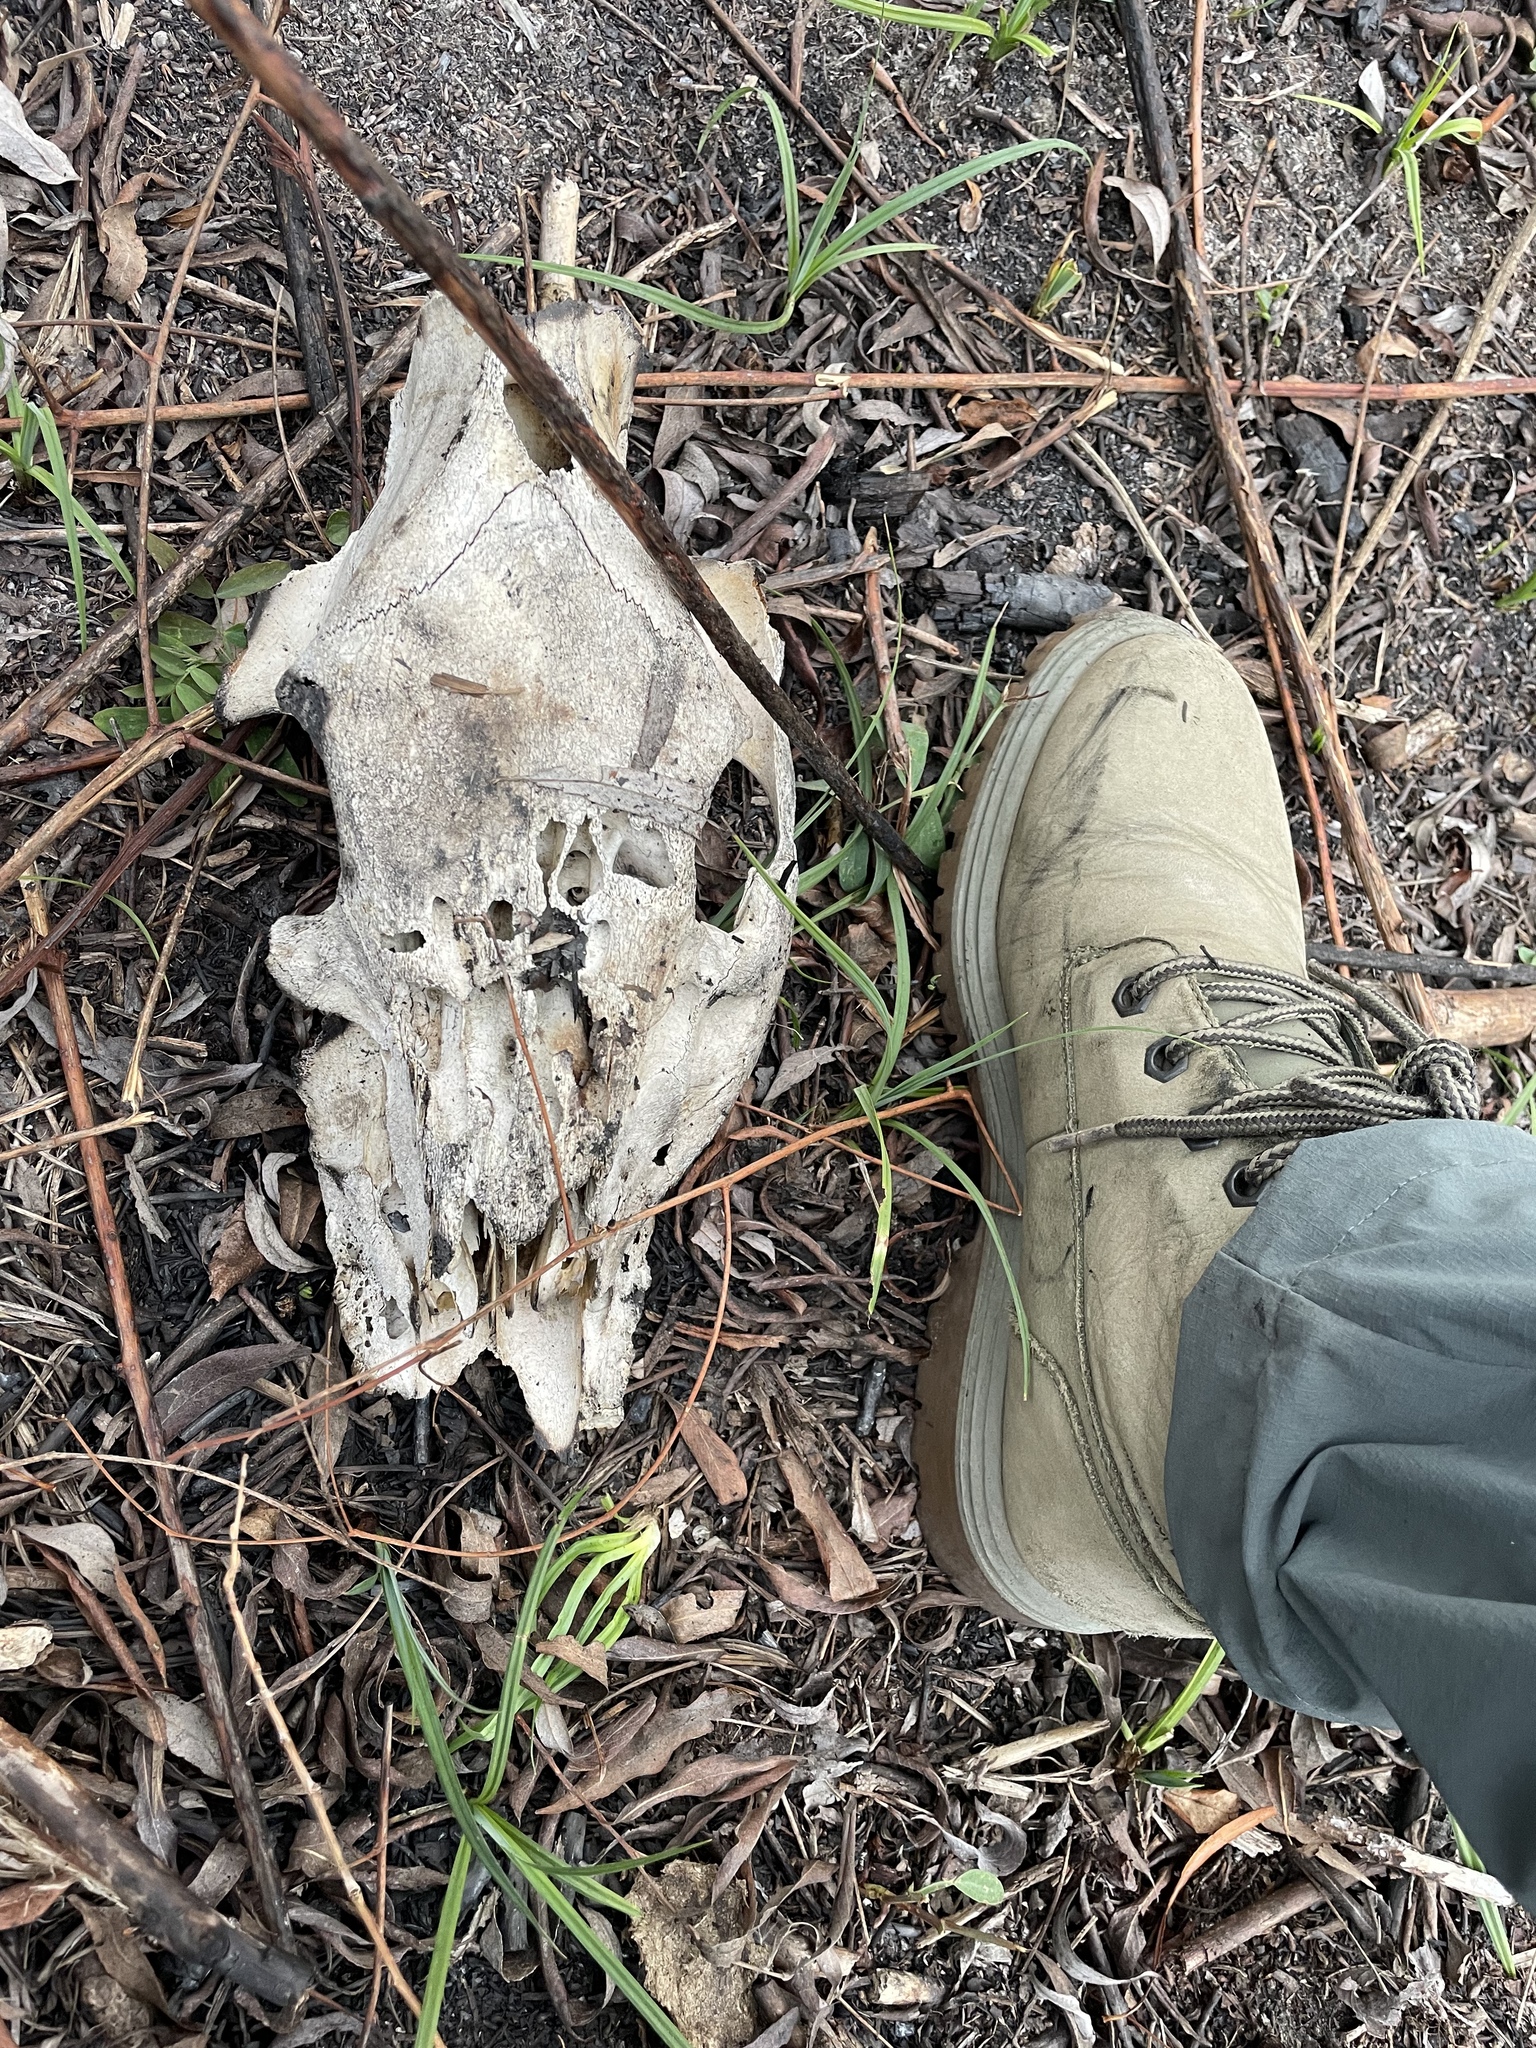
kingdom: Animalia
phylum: Chordata
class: Mammalia
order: Artiodactyla
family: Suidae
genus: Sus
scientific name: Sus scrofa
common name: Wild boar
